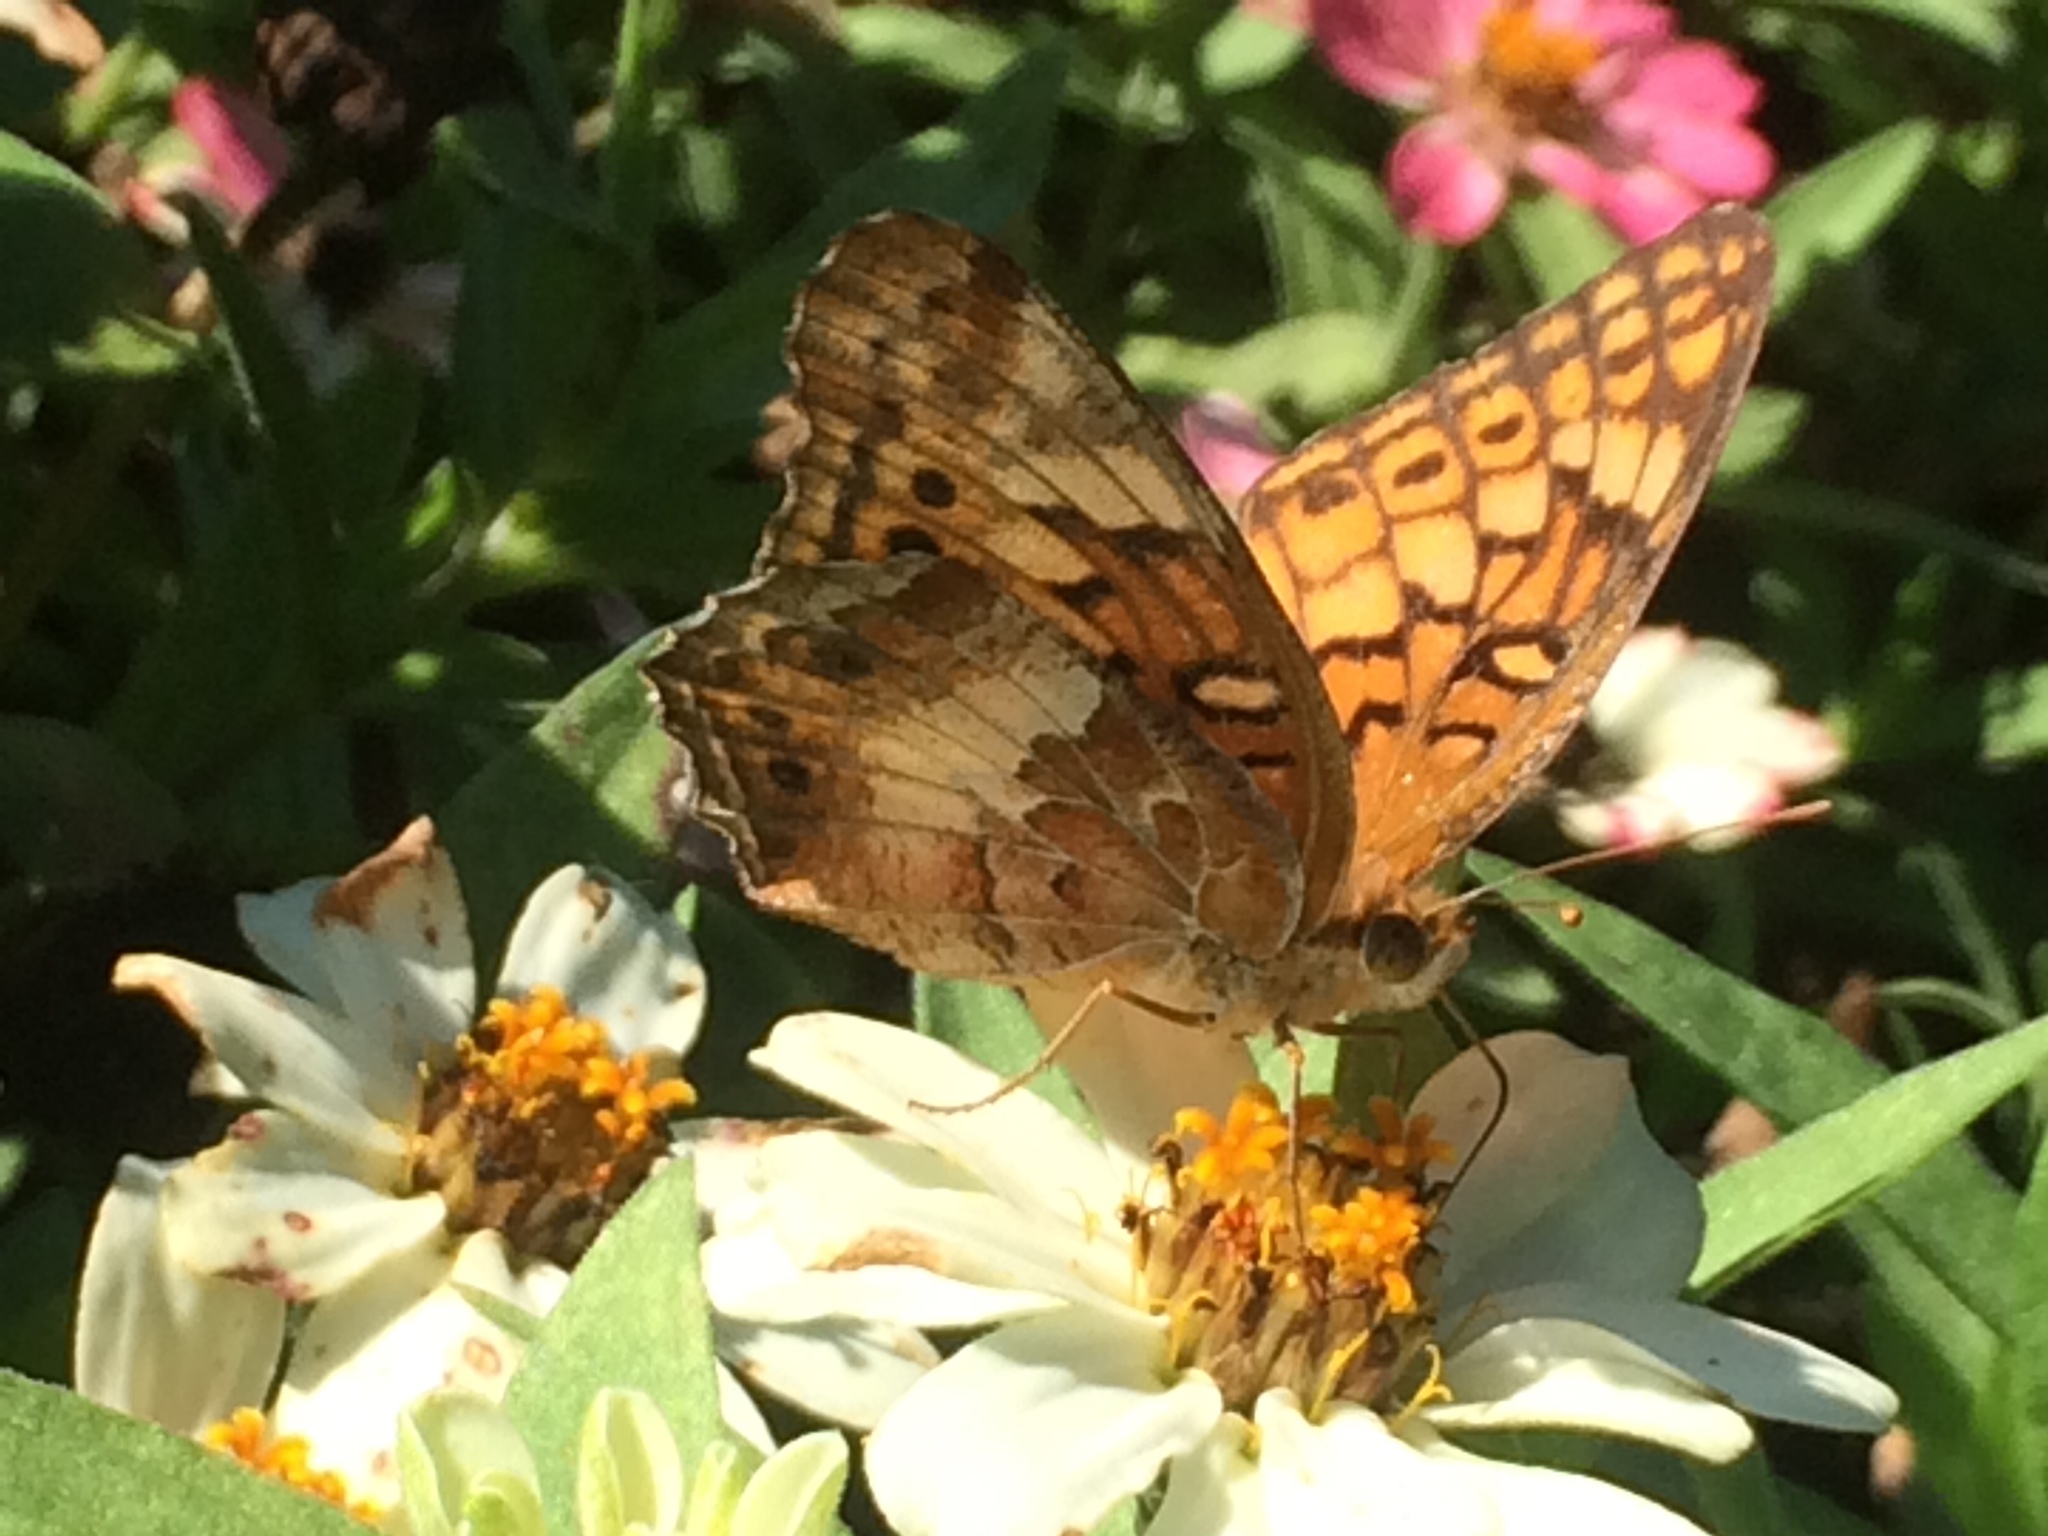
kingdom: Animalia
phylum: Arthropoda
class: Insecta
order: Lepidoptera
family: Nymphalidae
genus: Euptoieta
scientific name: Euptoieta claudia
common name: Variegated fritillary
